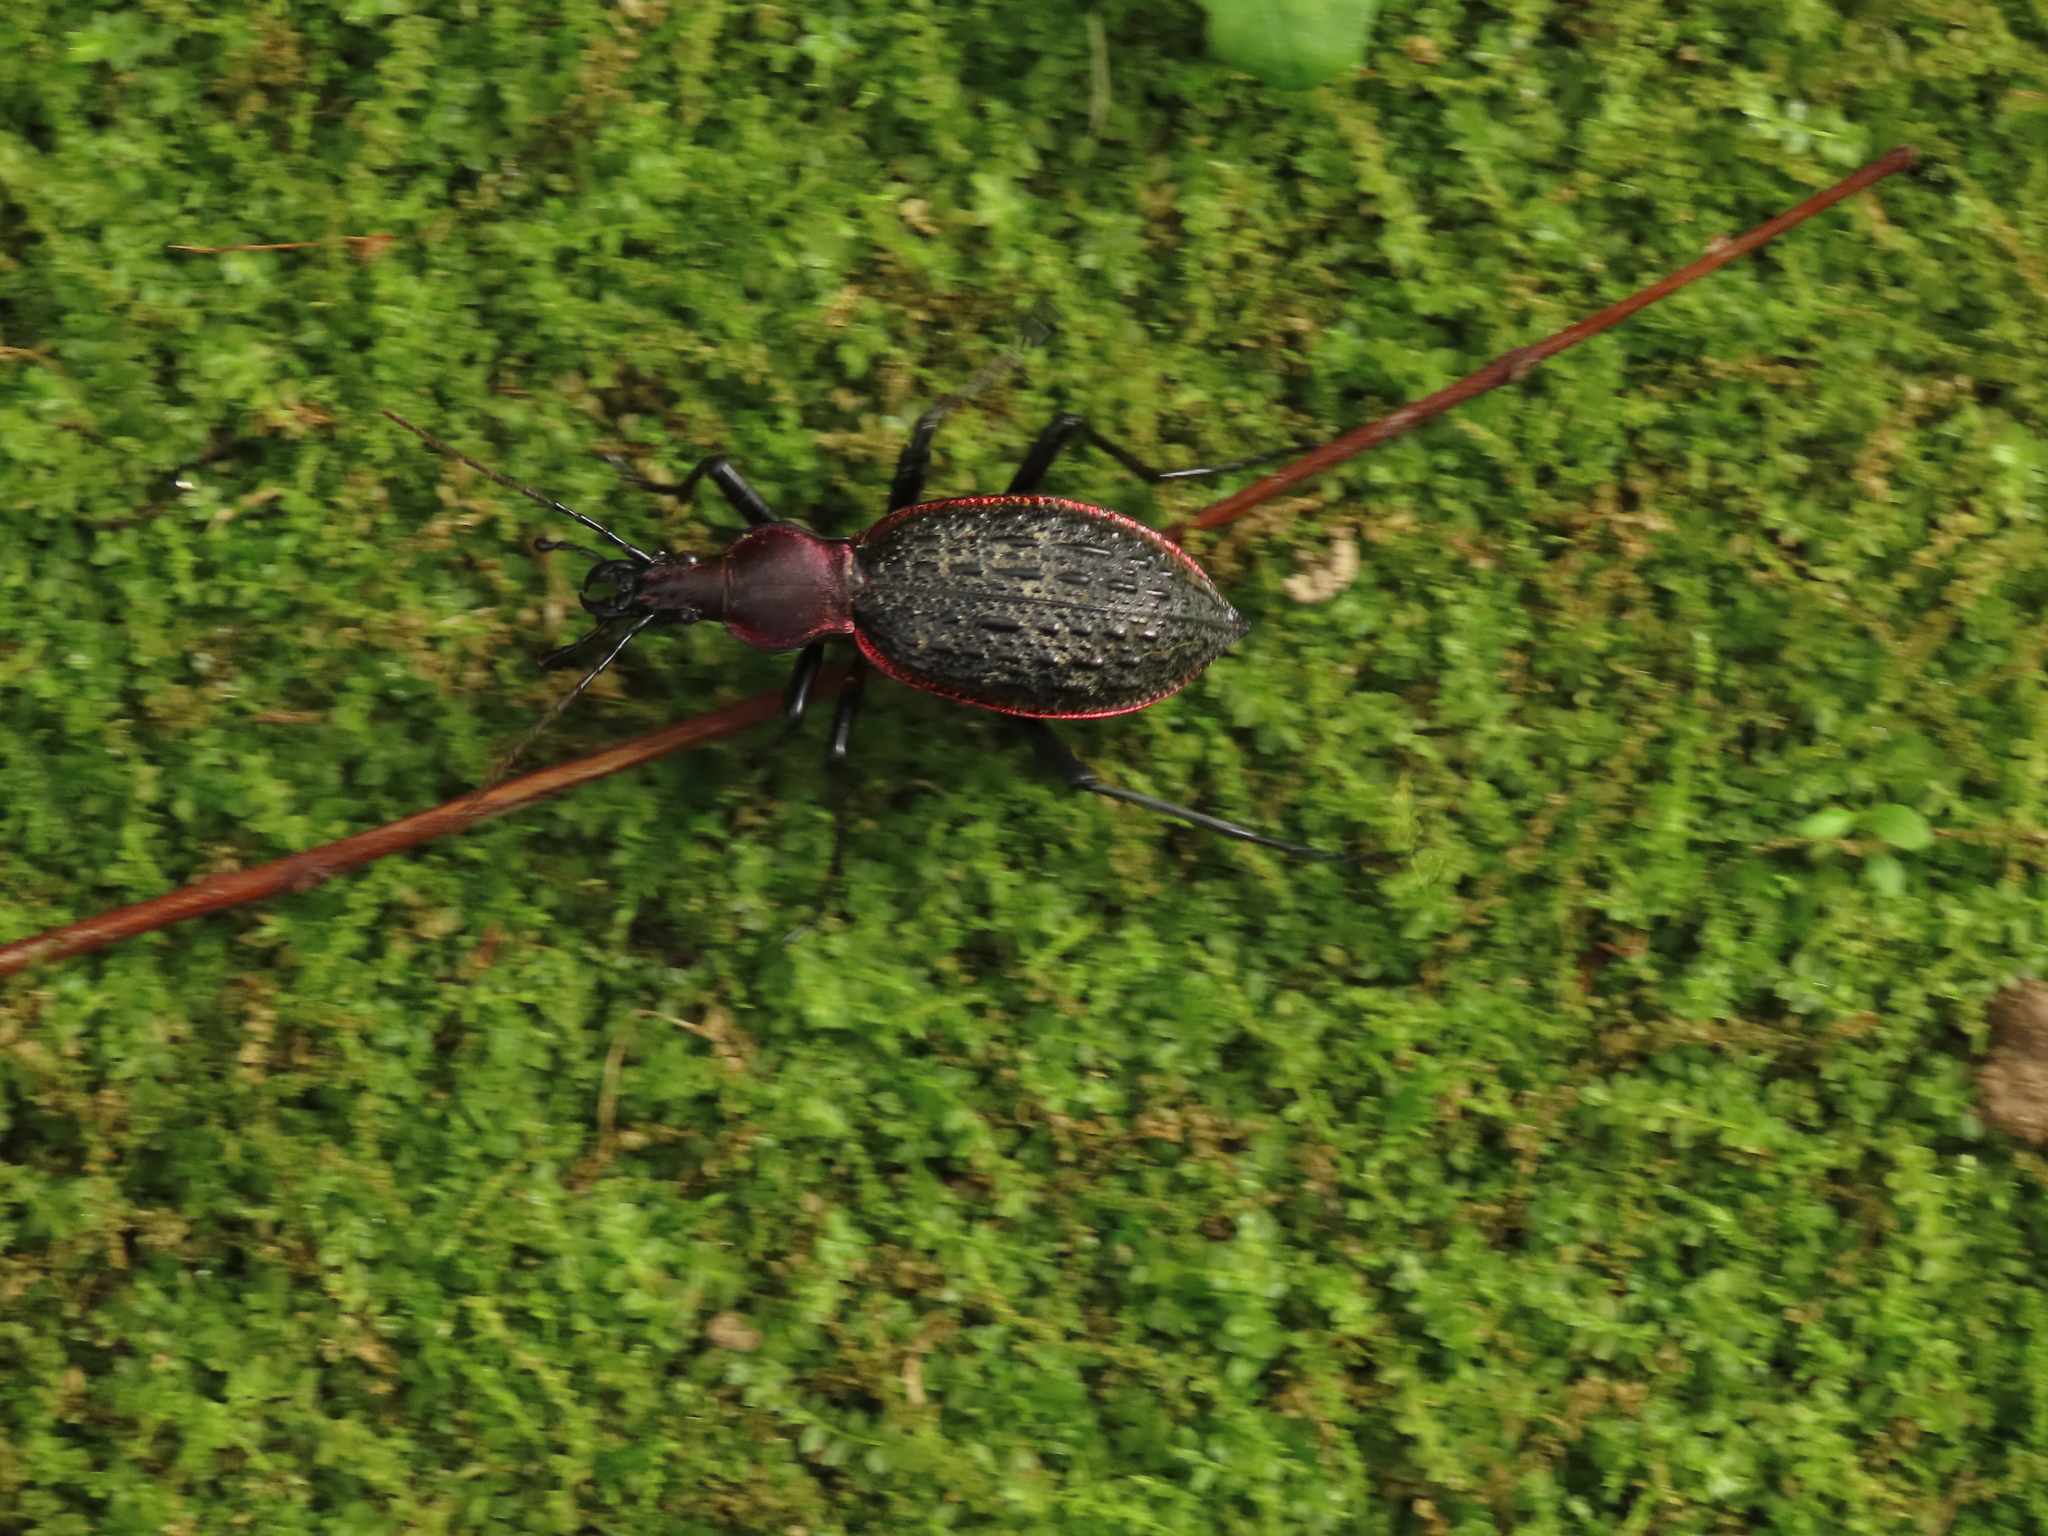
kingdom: Animalia
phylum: Arthropoda
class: Insecta
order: Coleoptera
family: Carabidae
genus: Carabus
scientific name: Carabus nankotaizanus
